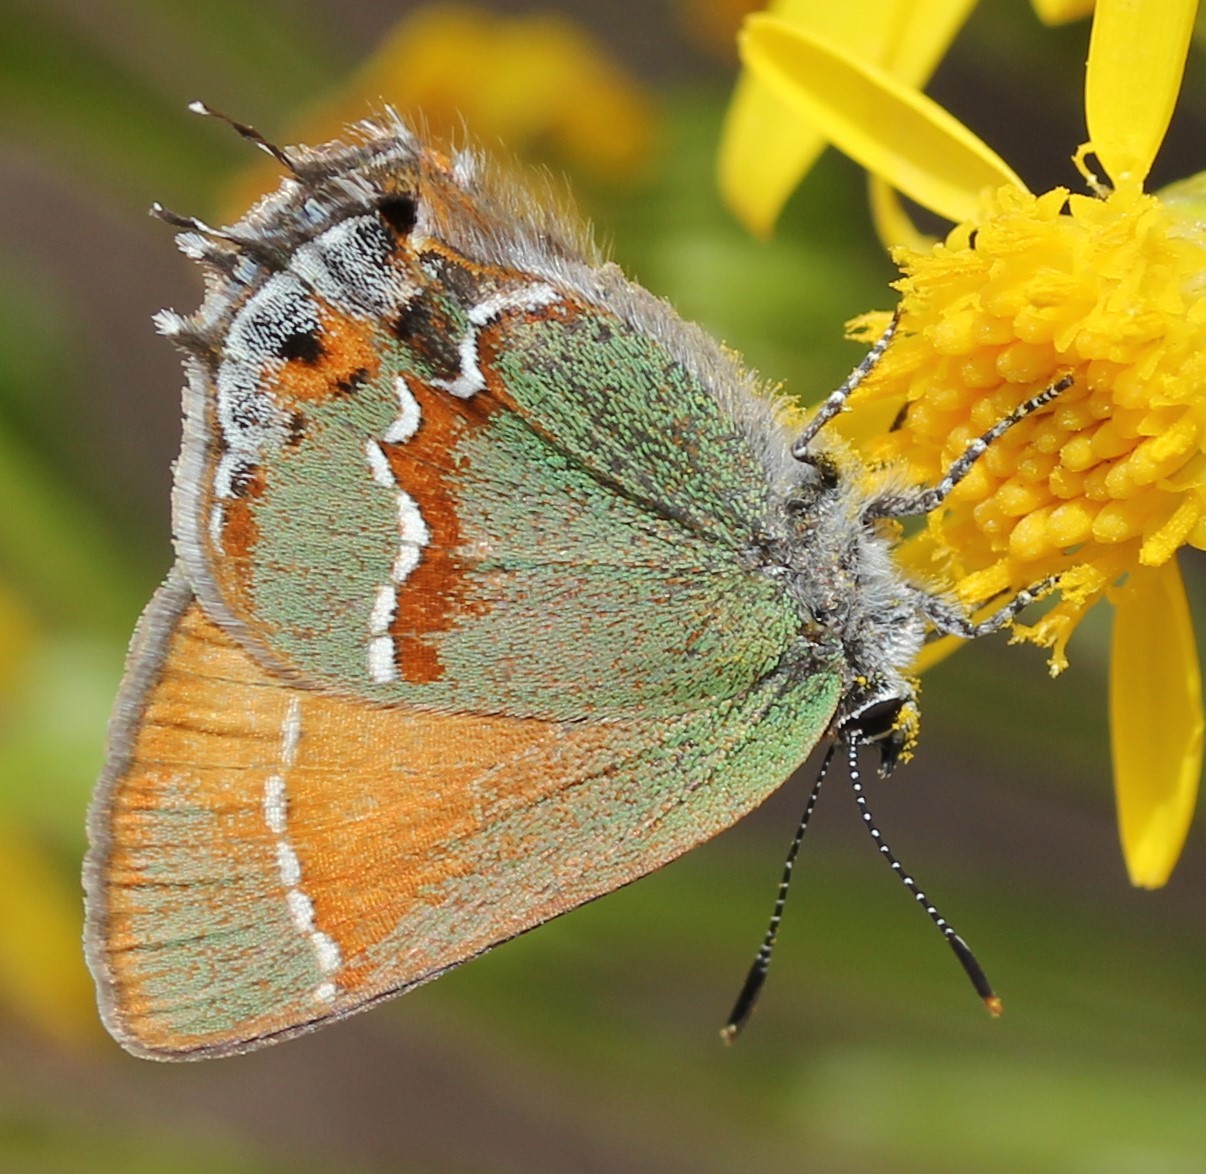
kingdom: Animalia
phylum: Arthropoda
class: Insecta
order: Lepidoptera
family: Lycaenidae
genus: Mitoura
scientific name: Mitoura siva
